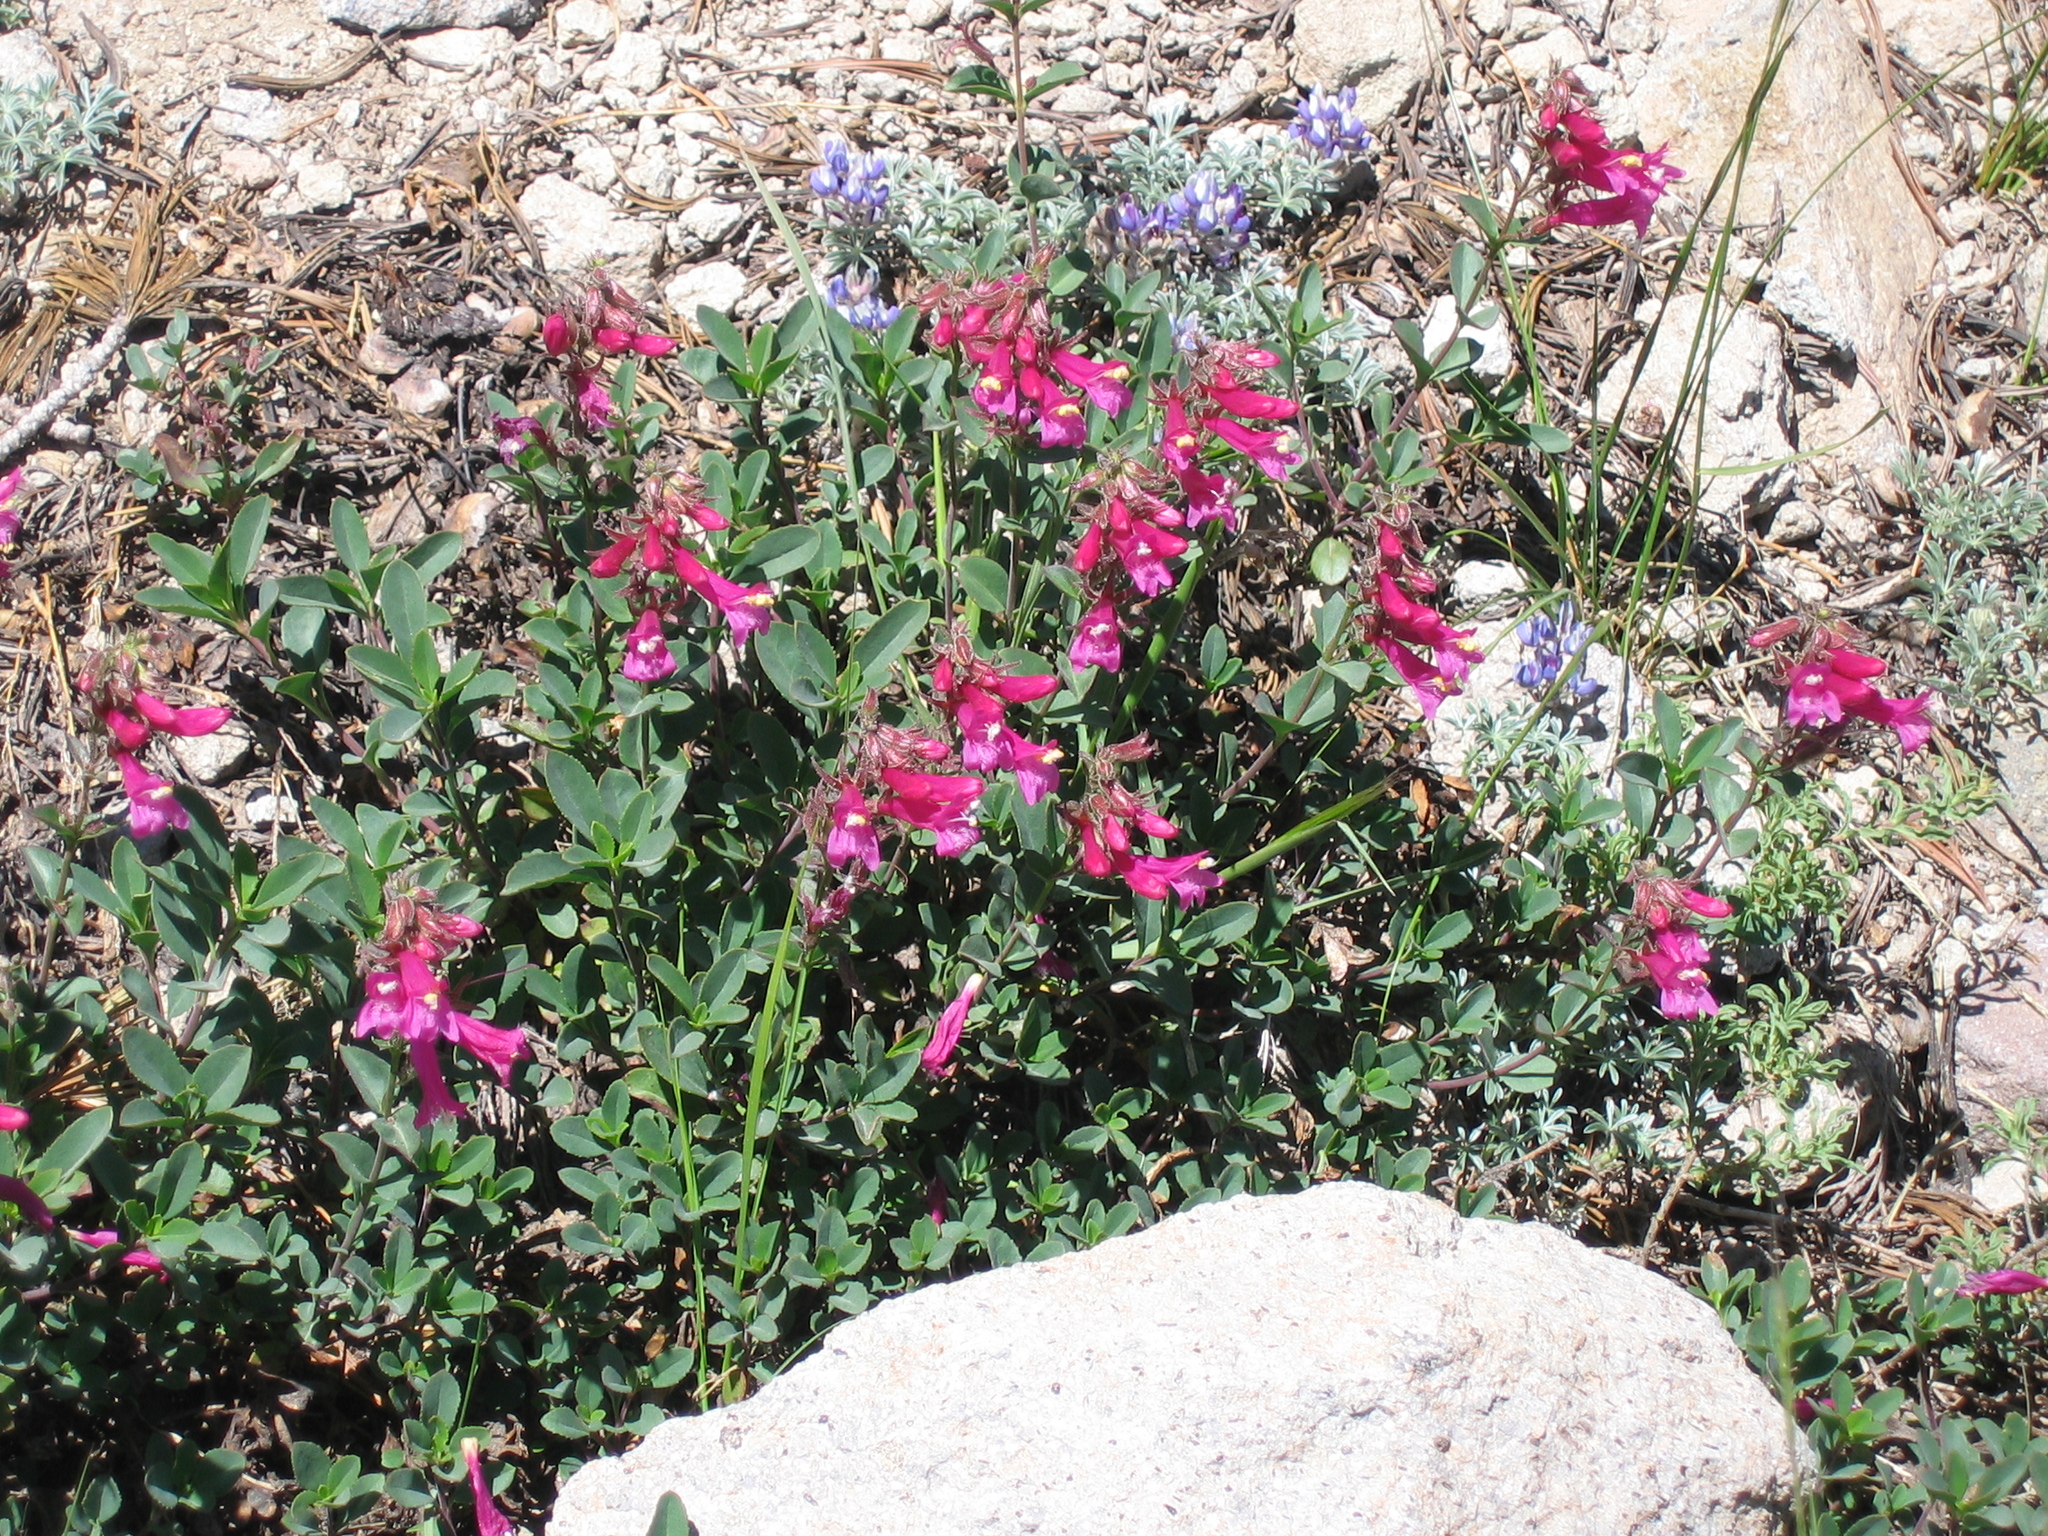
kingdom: Plantae
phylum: Tracheophyta
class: Magnoliopsida
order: Lamiales
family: Plantaginaceae
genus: Penstemon
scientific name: Penstemon newberryi
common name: Mountain-pride
